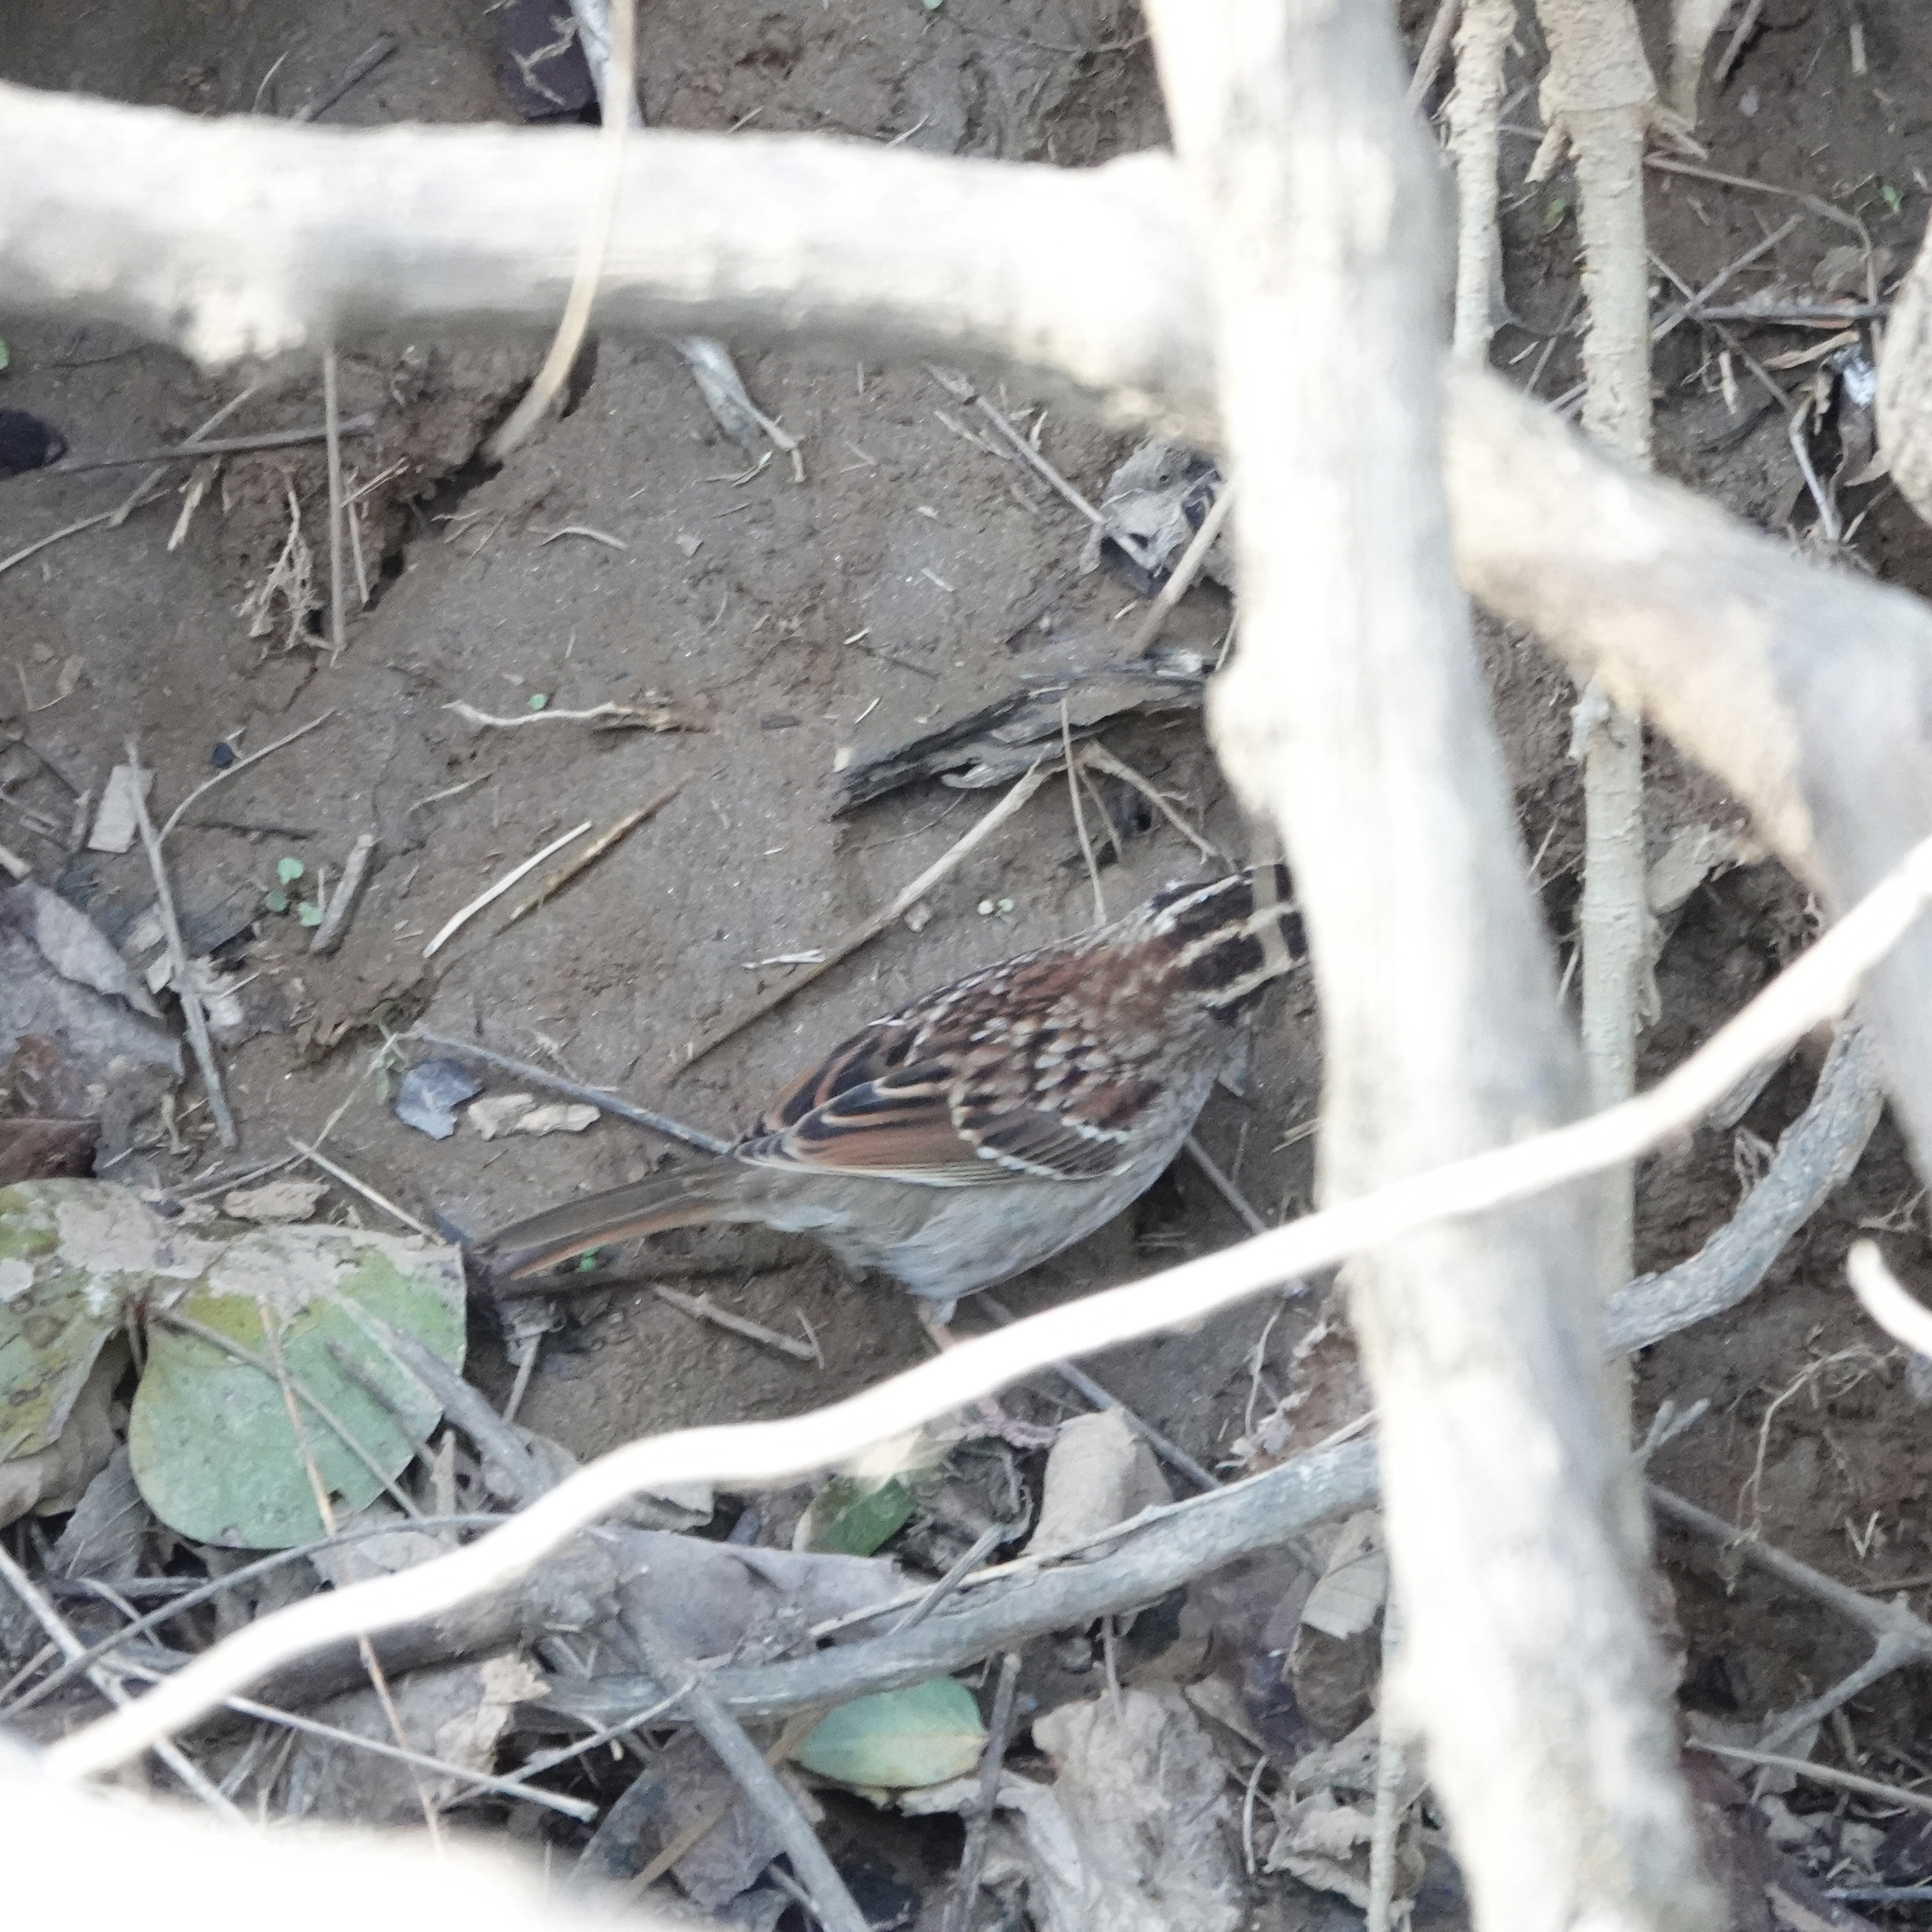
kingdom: Animalia
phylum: Chordata
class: Aves
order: Passeriformes
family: Passerellidae
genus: Zonotrichia
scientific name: Zonotrichia albicollis
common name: White-throated sparrow
